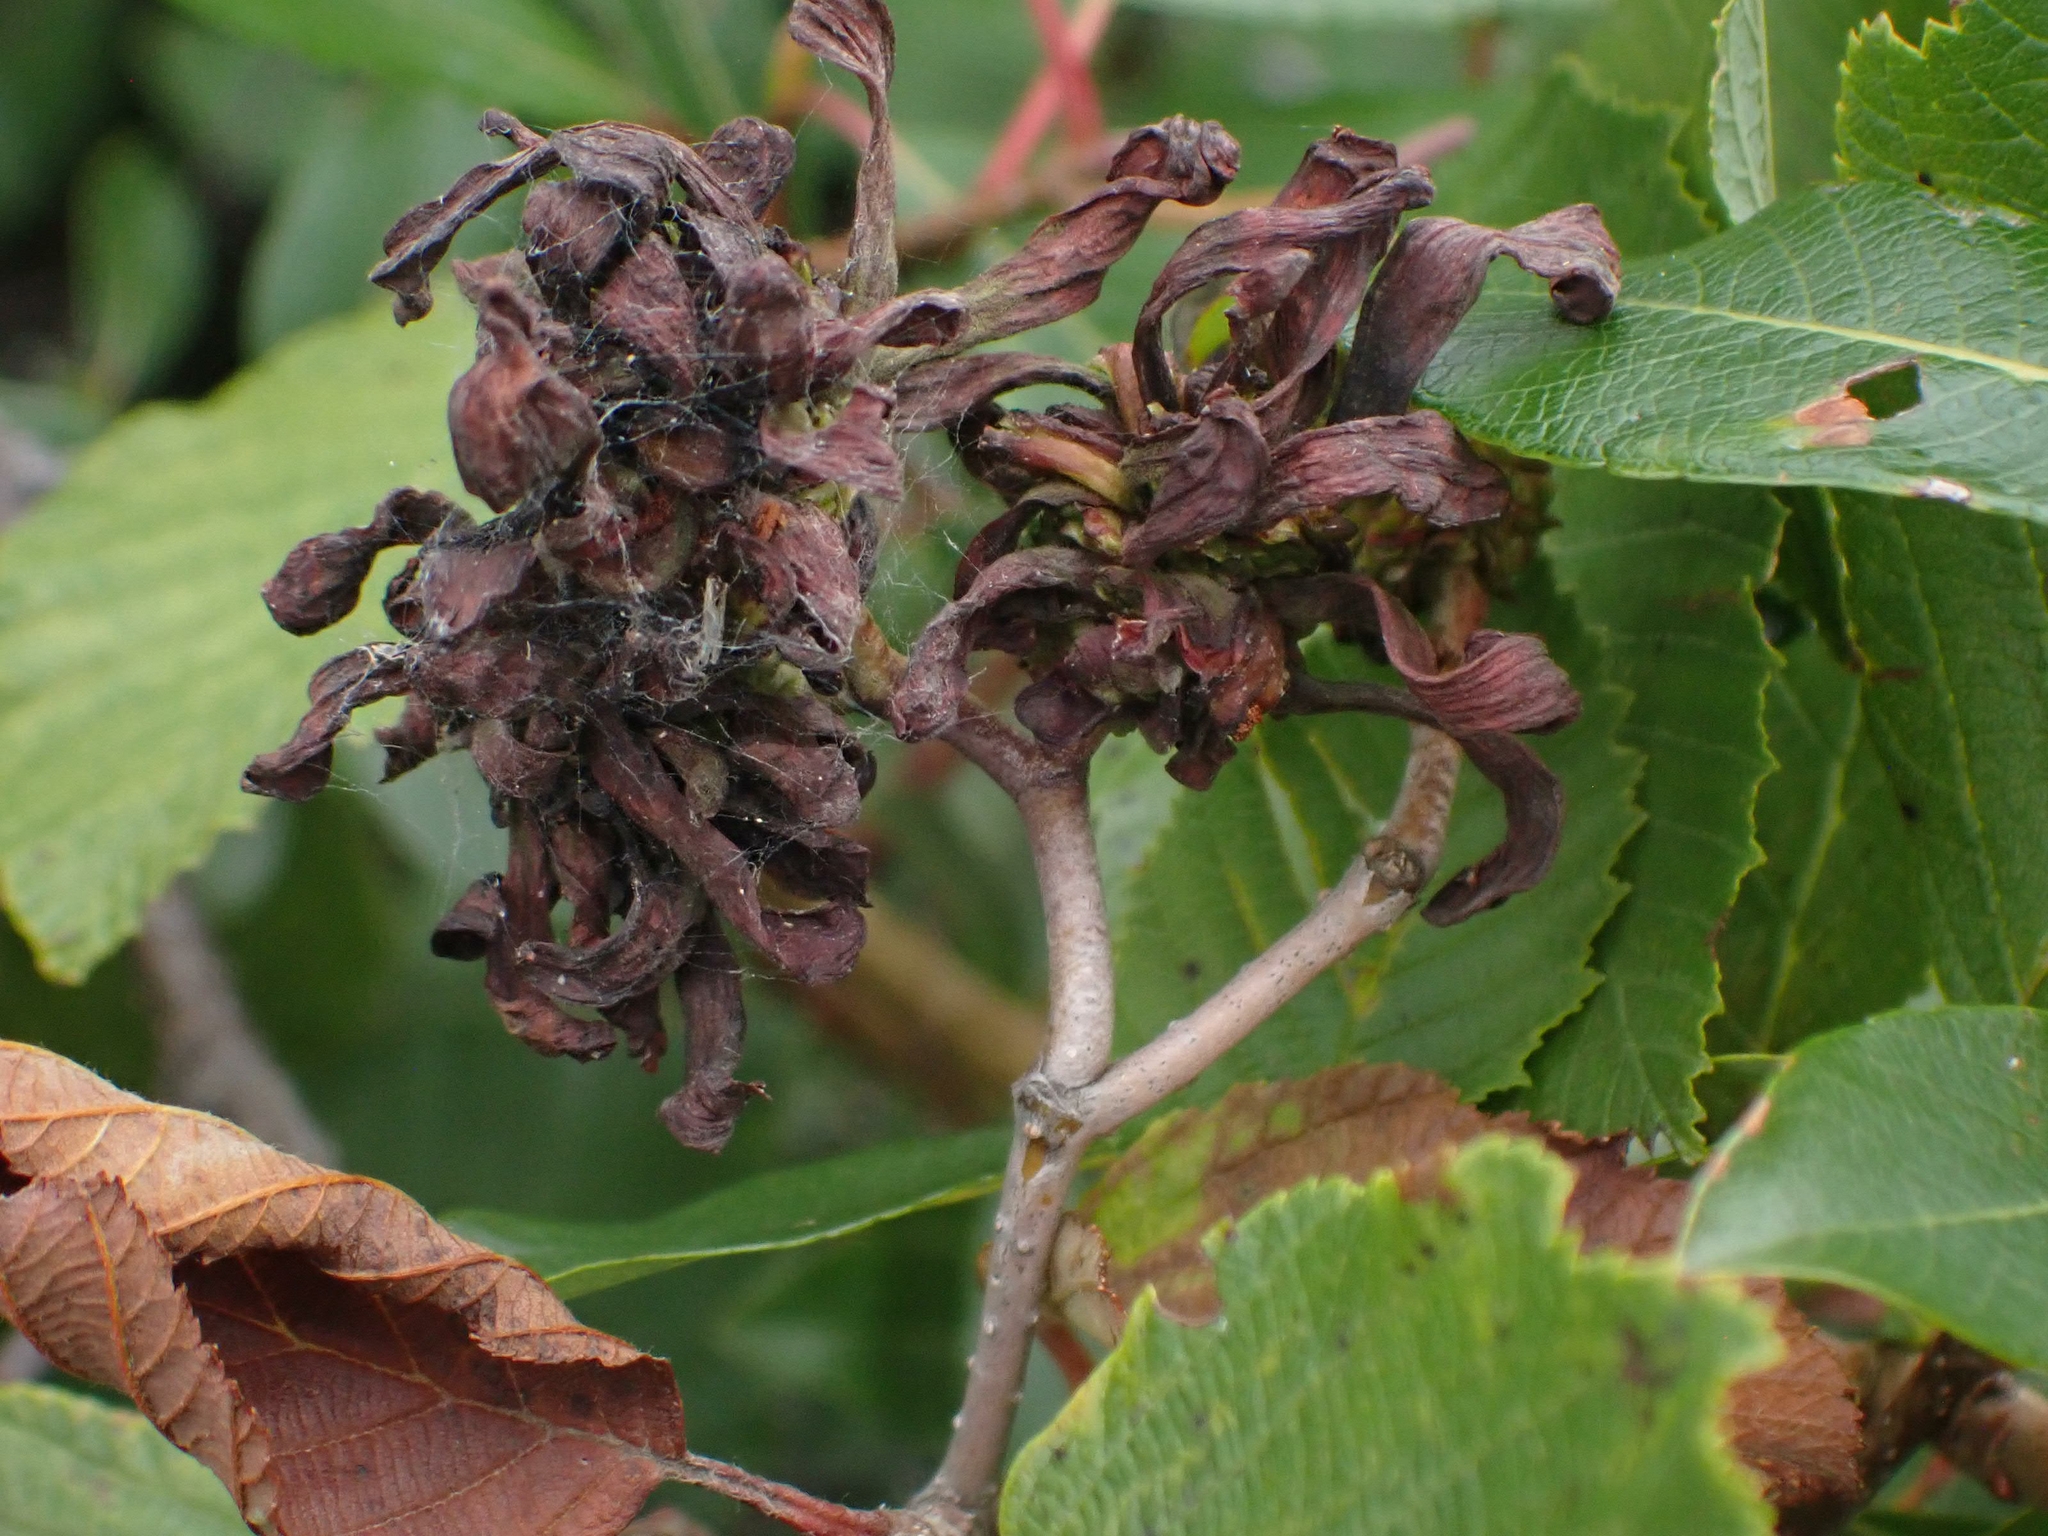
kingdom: Fungi
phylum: Ascomycota
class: Taphrinomycetes
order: Taphrinales
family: Taphrinaceae
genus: Taphrina
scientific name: Taphrina robinsoniana
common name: Eastern american alder tongue gall fungus
